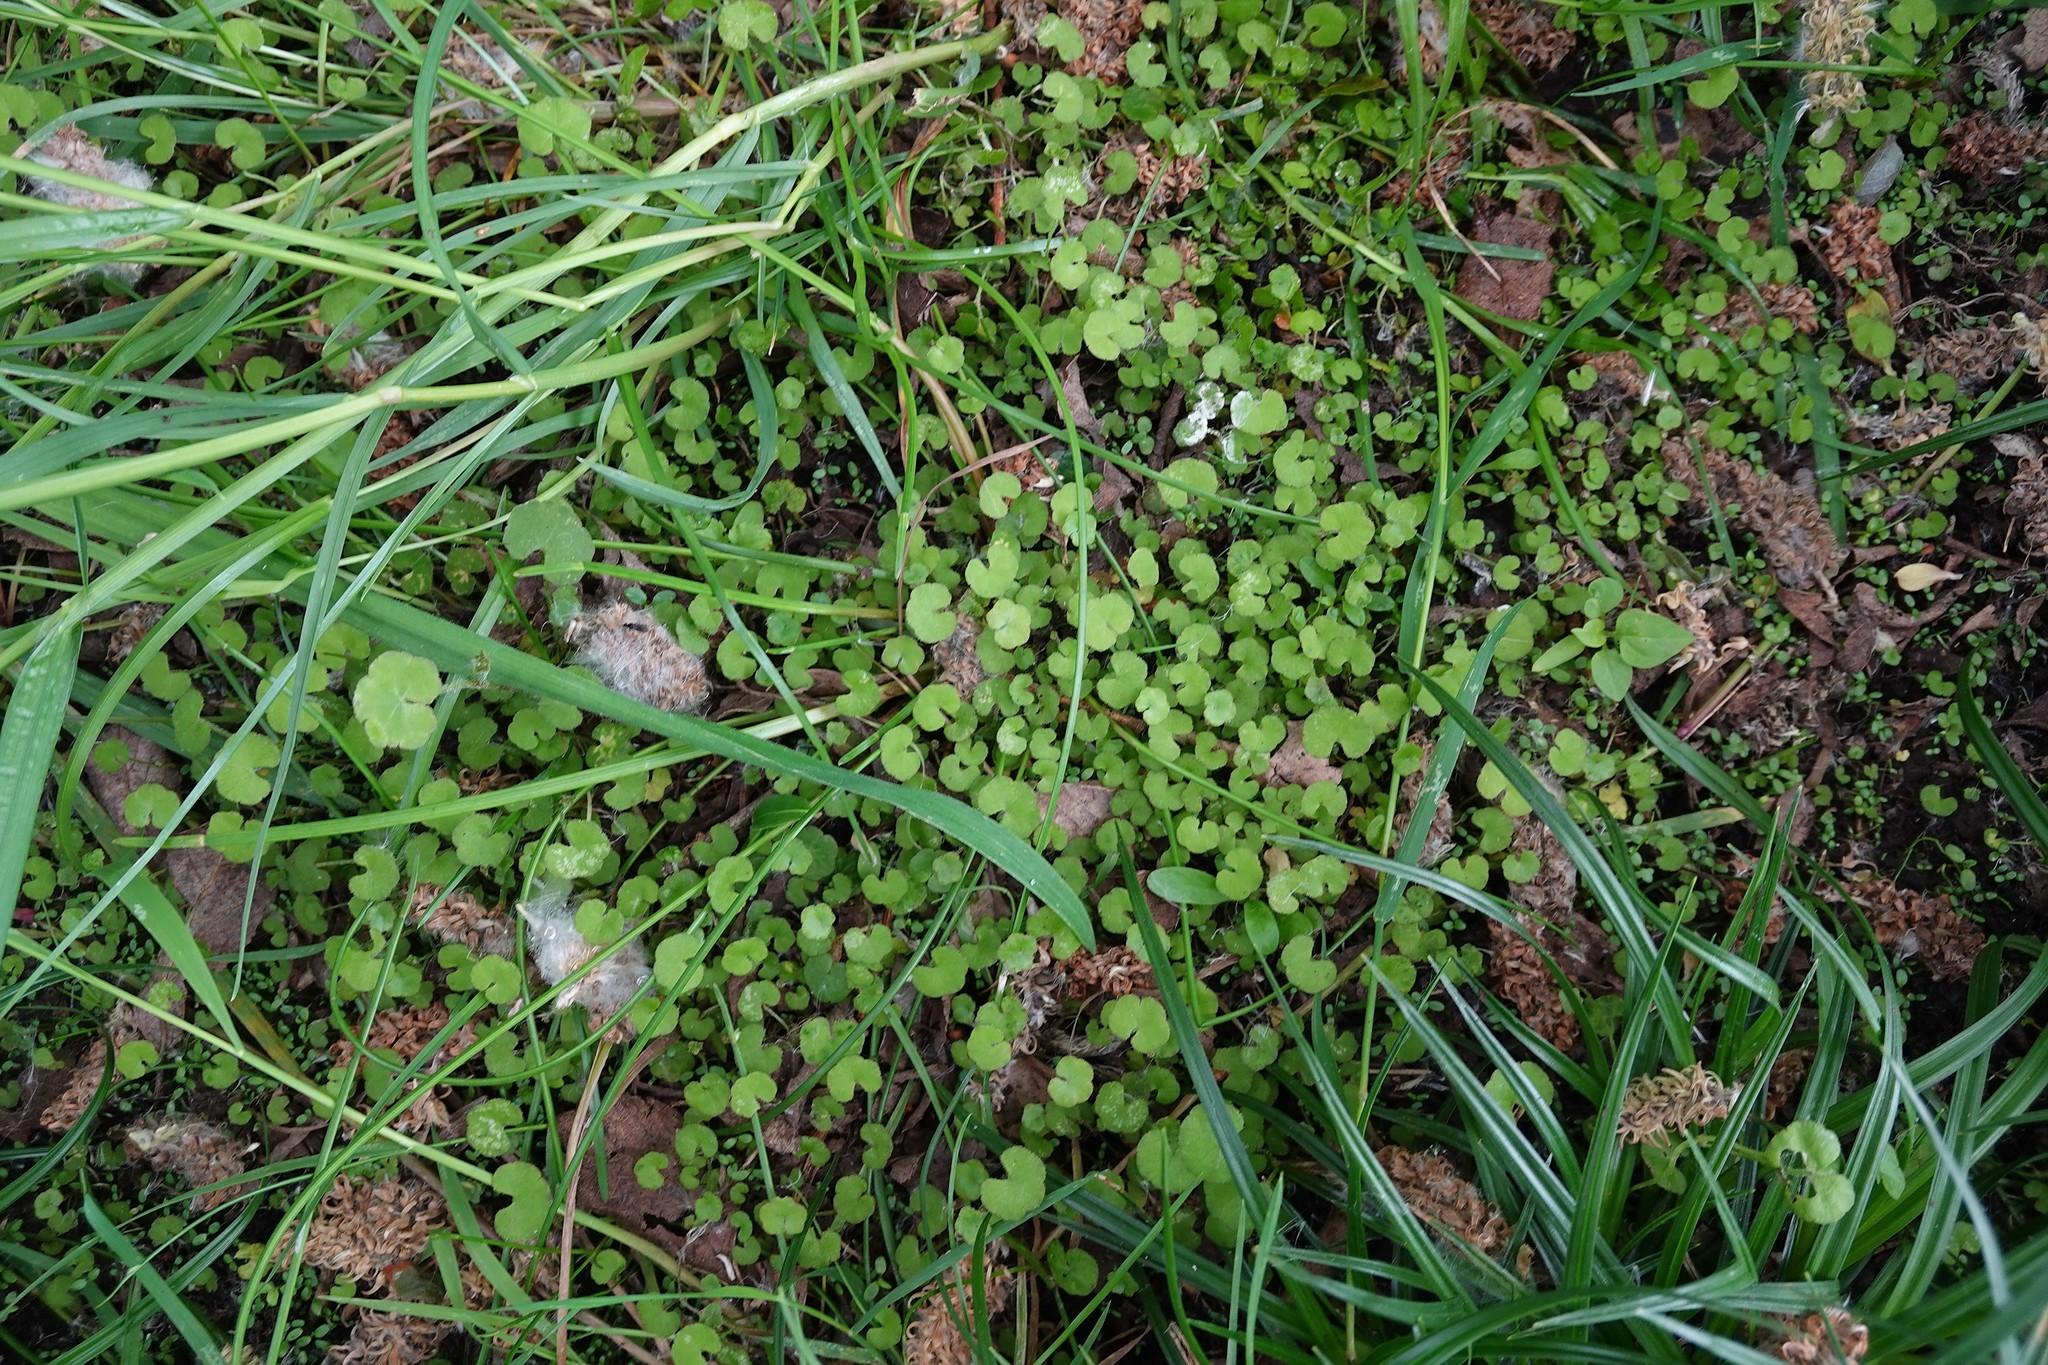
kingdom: Plantae
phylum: Tracheophyta
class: Magnoliopsida
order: Apiales
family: Araliaceae
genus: Hydrocotyle
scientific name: Hydrocotyle novae-zeelandiae
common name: New zealand pennywort
